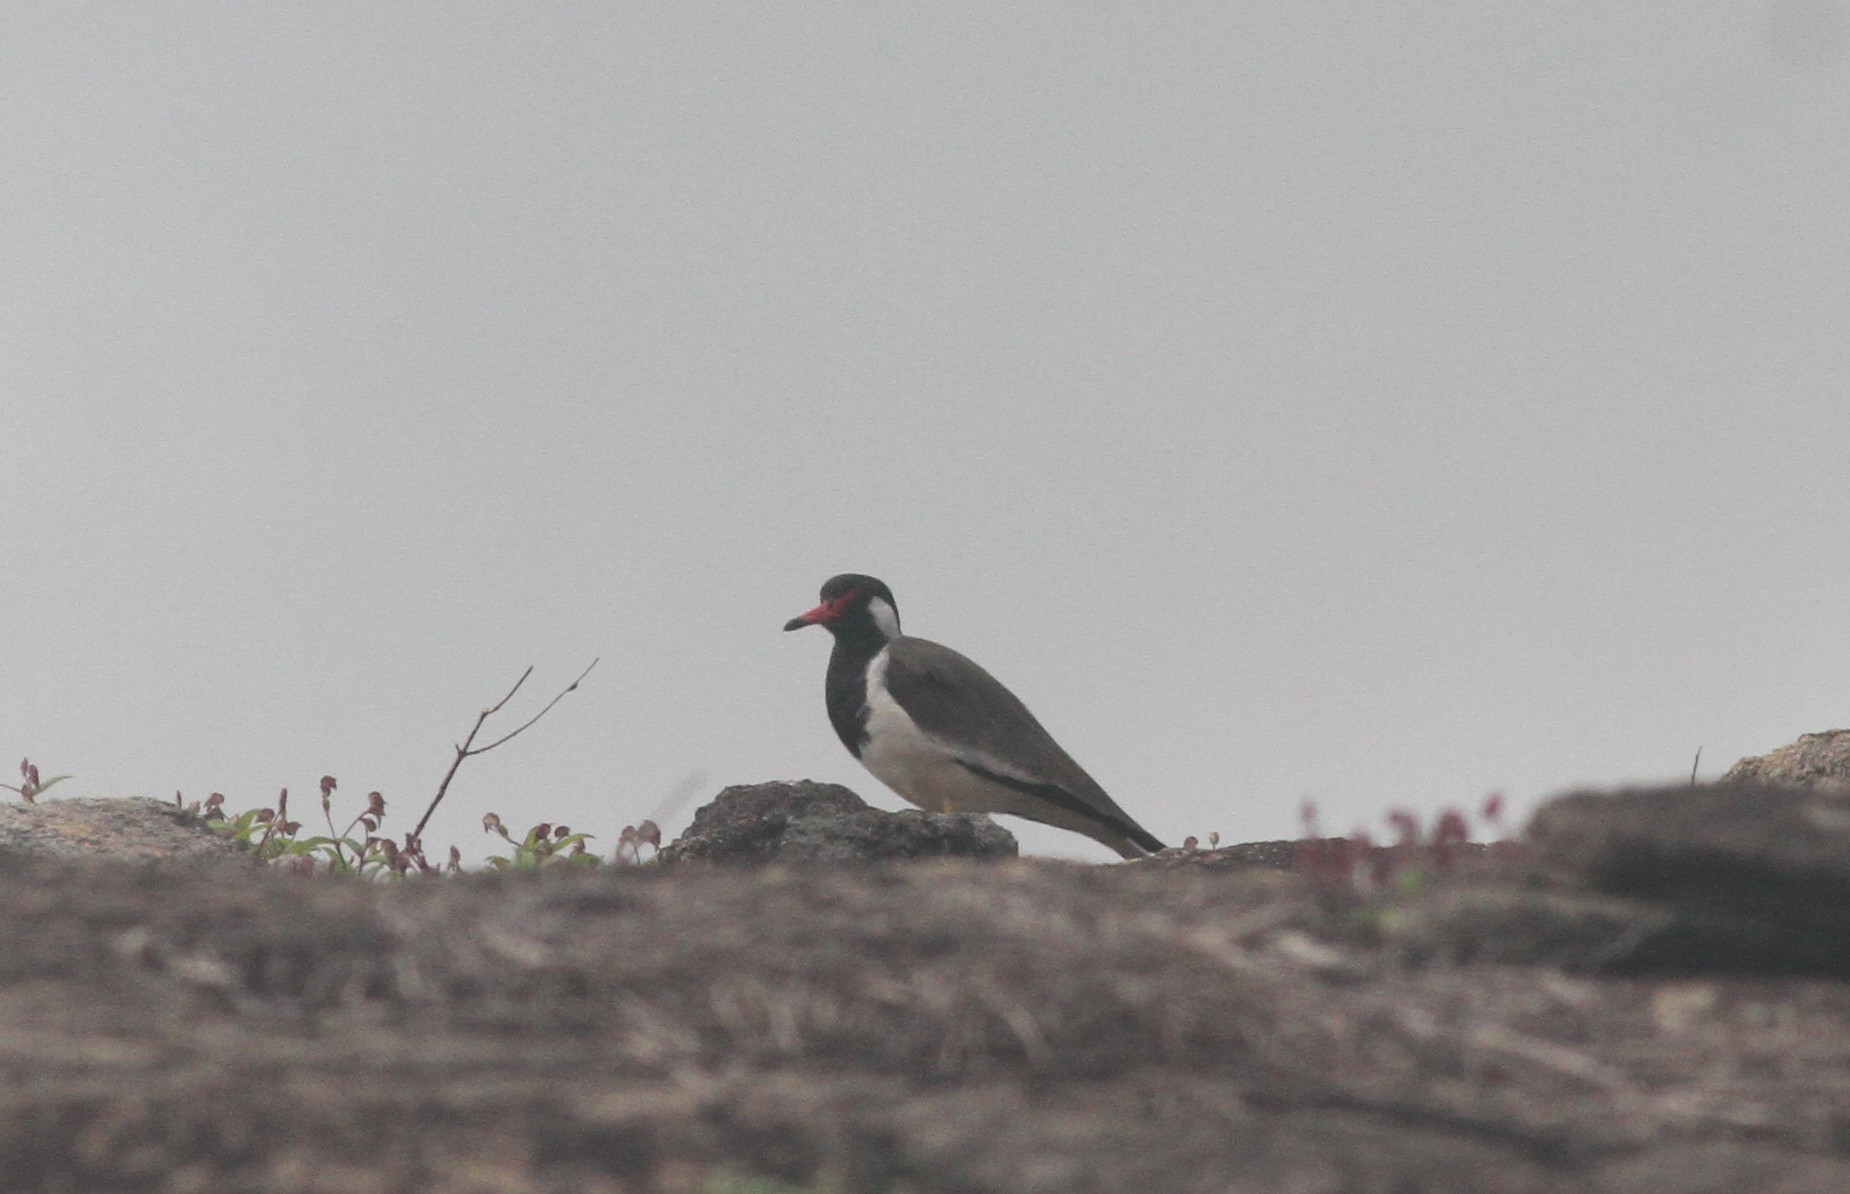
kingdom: Animalia
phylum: Chordata
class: Aves
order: Charadriiformes
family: Charadriidae
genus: Vanellus
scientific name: Vanellus indicus
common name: Red-wattled lapwing
